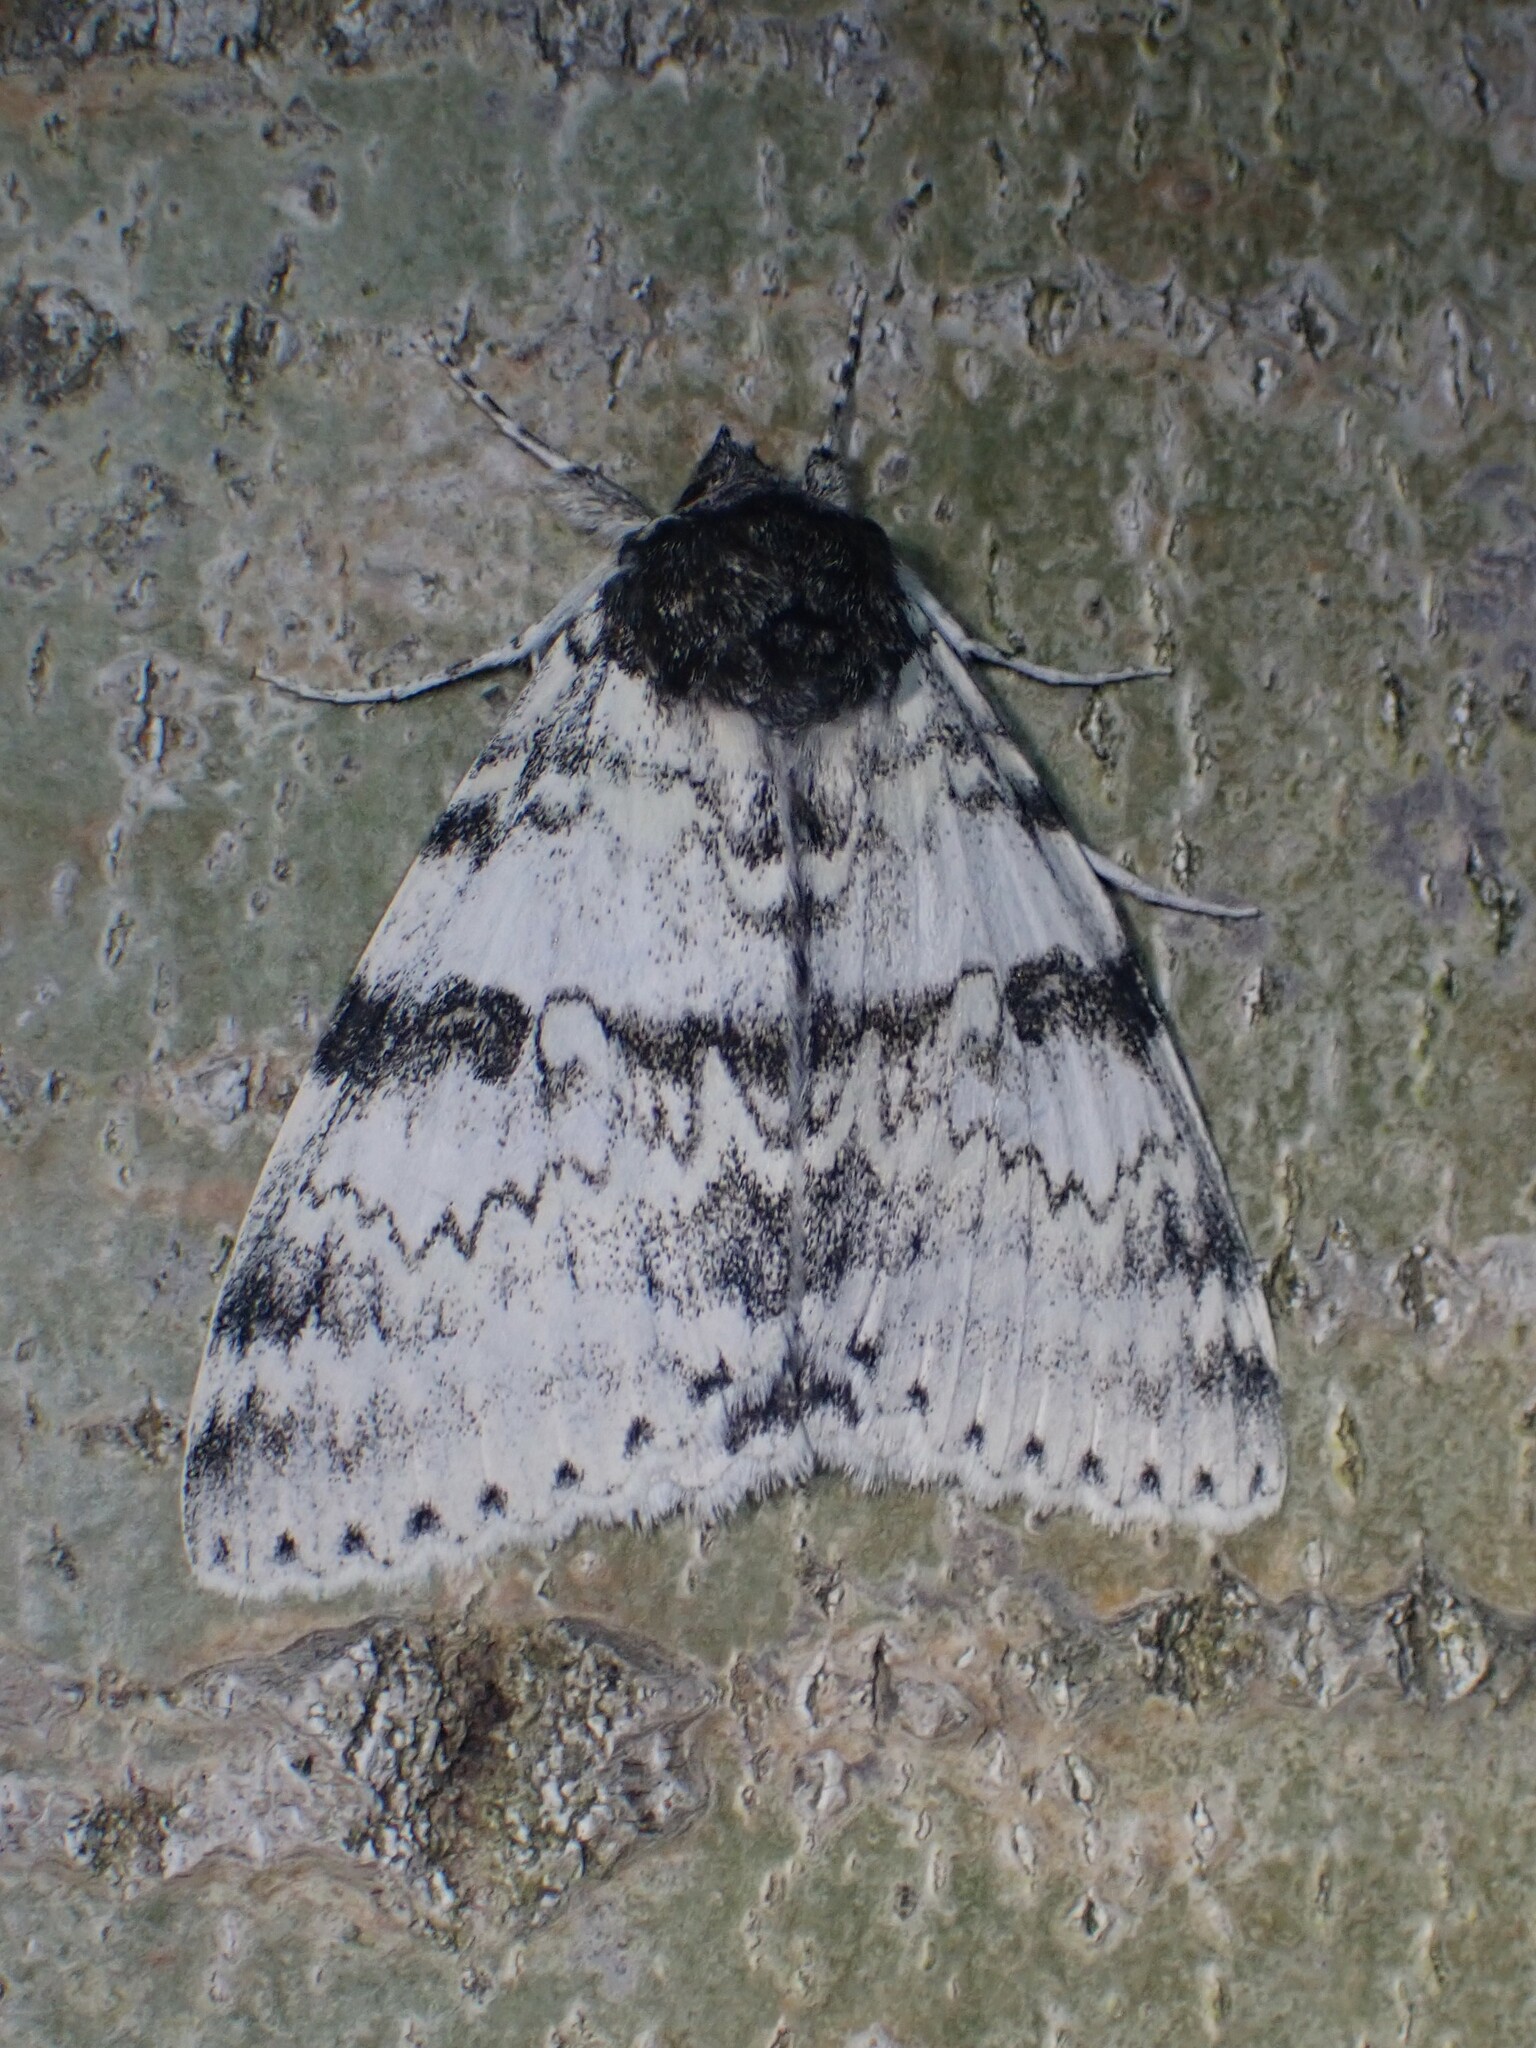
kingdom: Animalia
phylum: Arthropoda
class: Insecta
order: Lepidoptera
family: Erebidae
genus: Catocala
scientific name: Catocala relicta
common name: White underwing
